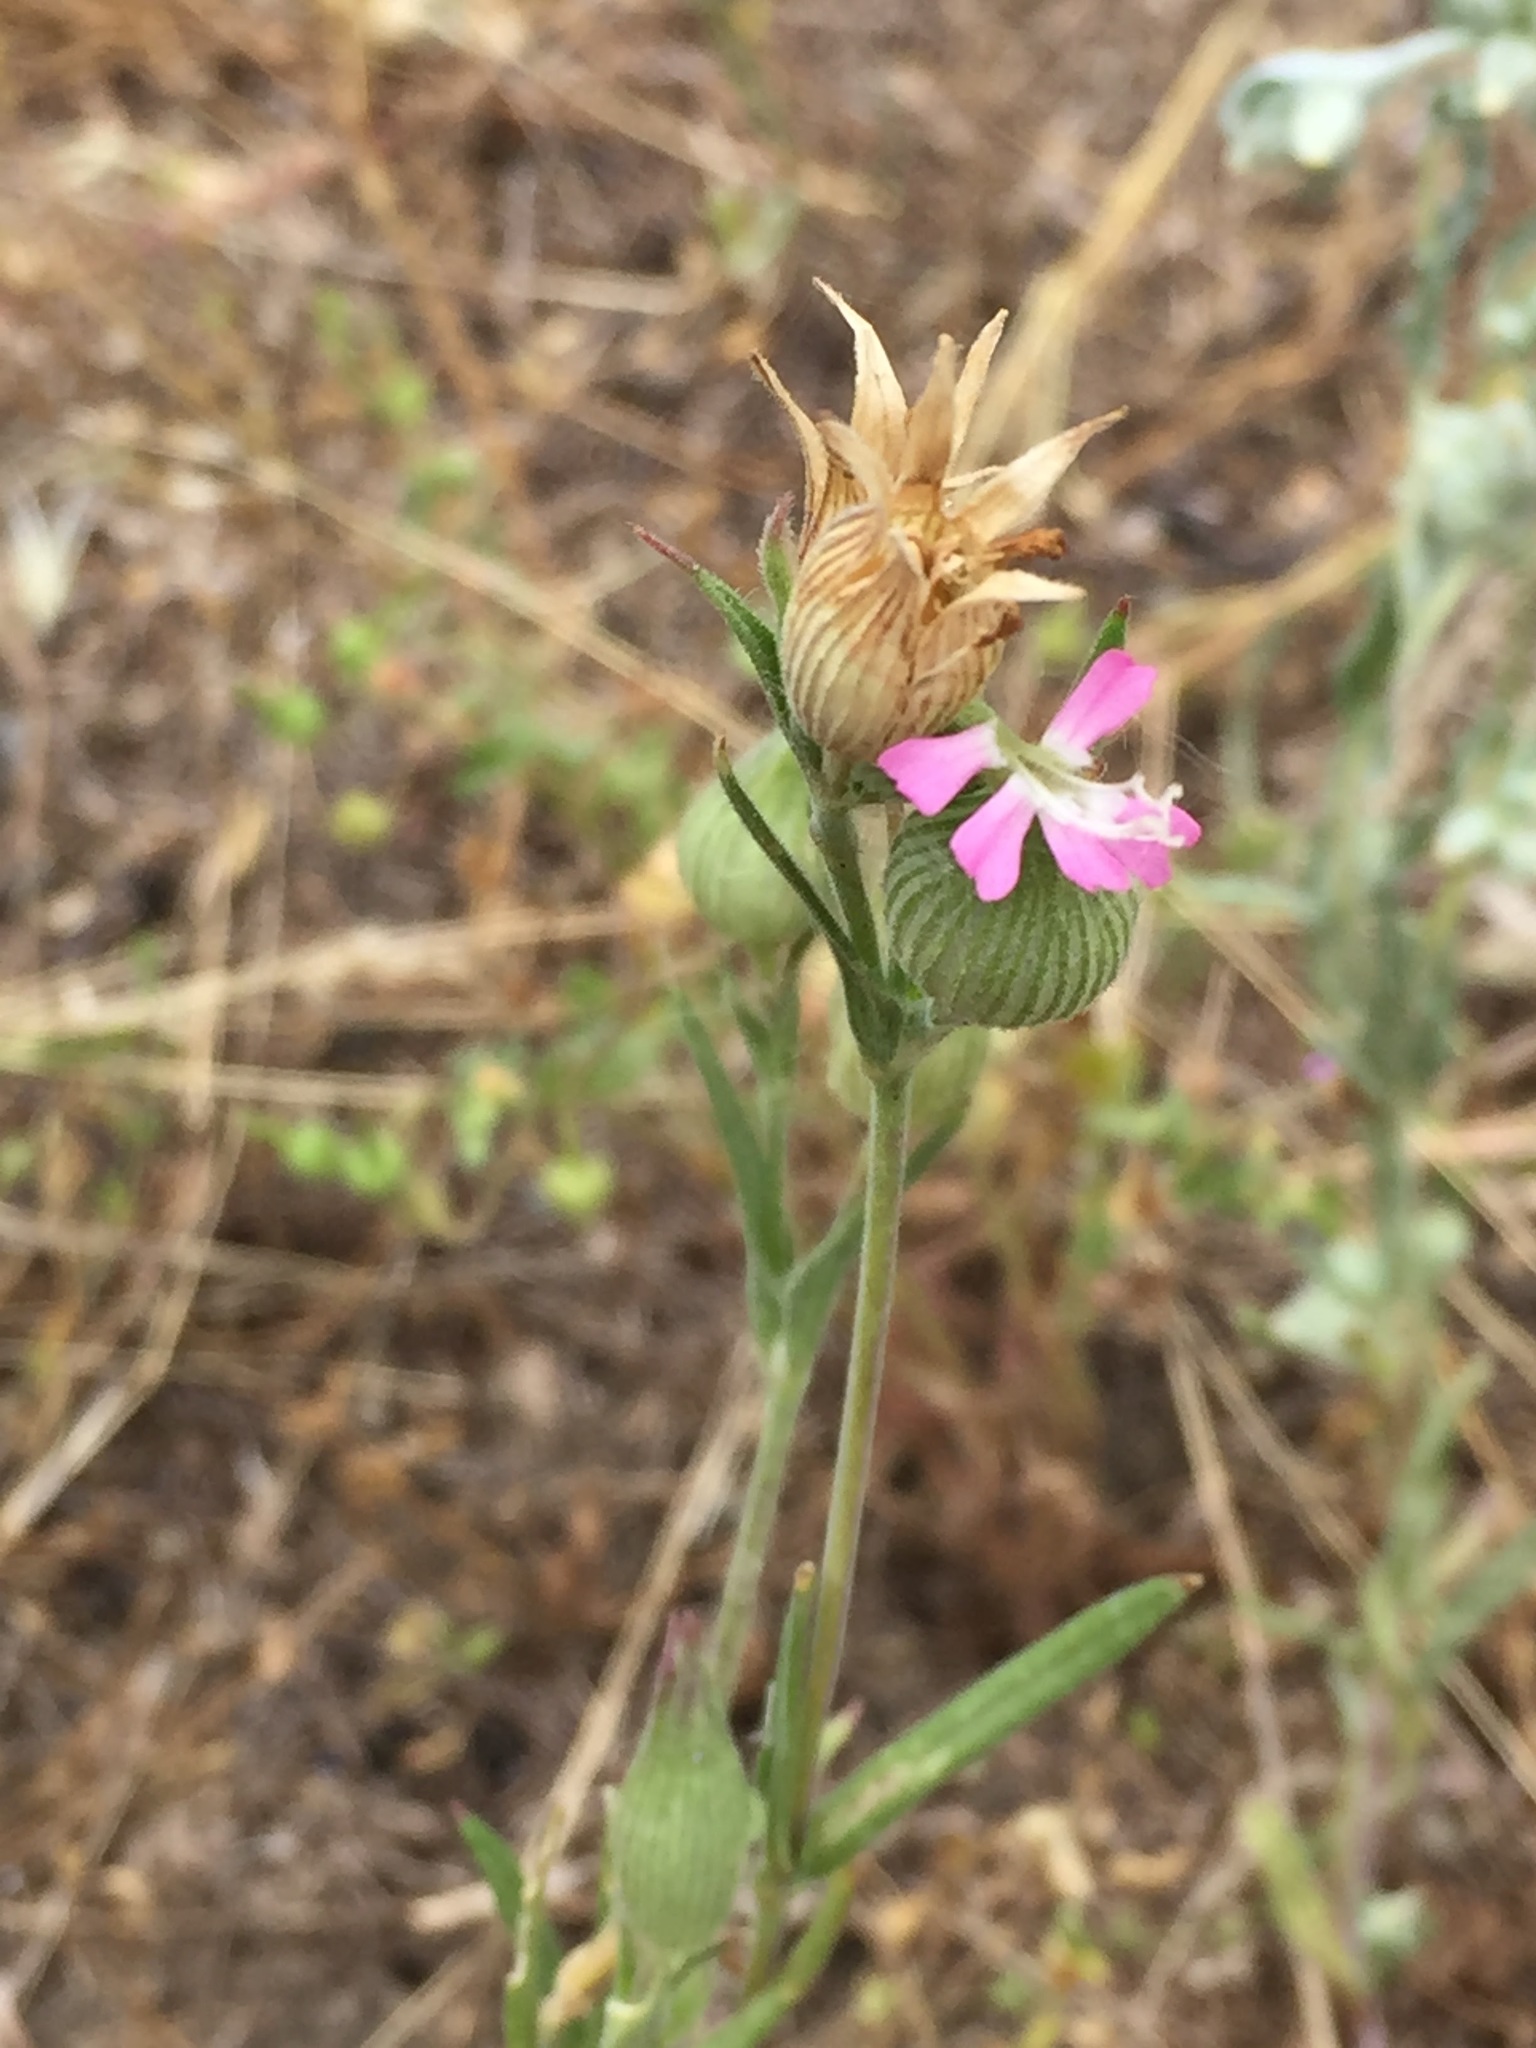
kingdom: Plantae
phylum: Tracheophyta
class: Magnoliopsida
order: Caryophyllales
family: Caryophyllaceae
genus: Silene
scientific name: Silene conica
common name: Sand catchfly
